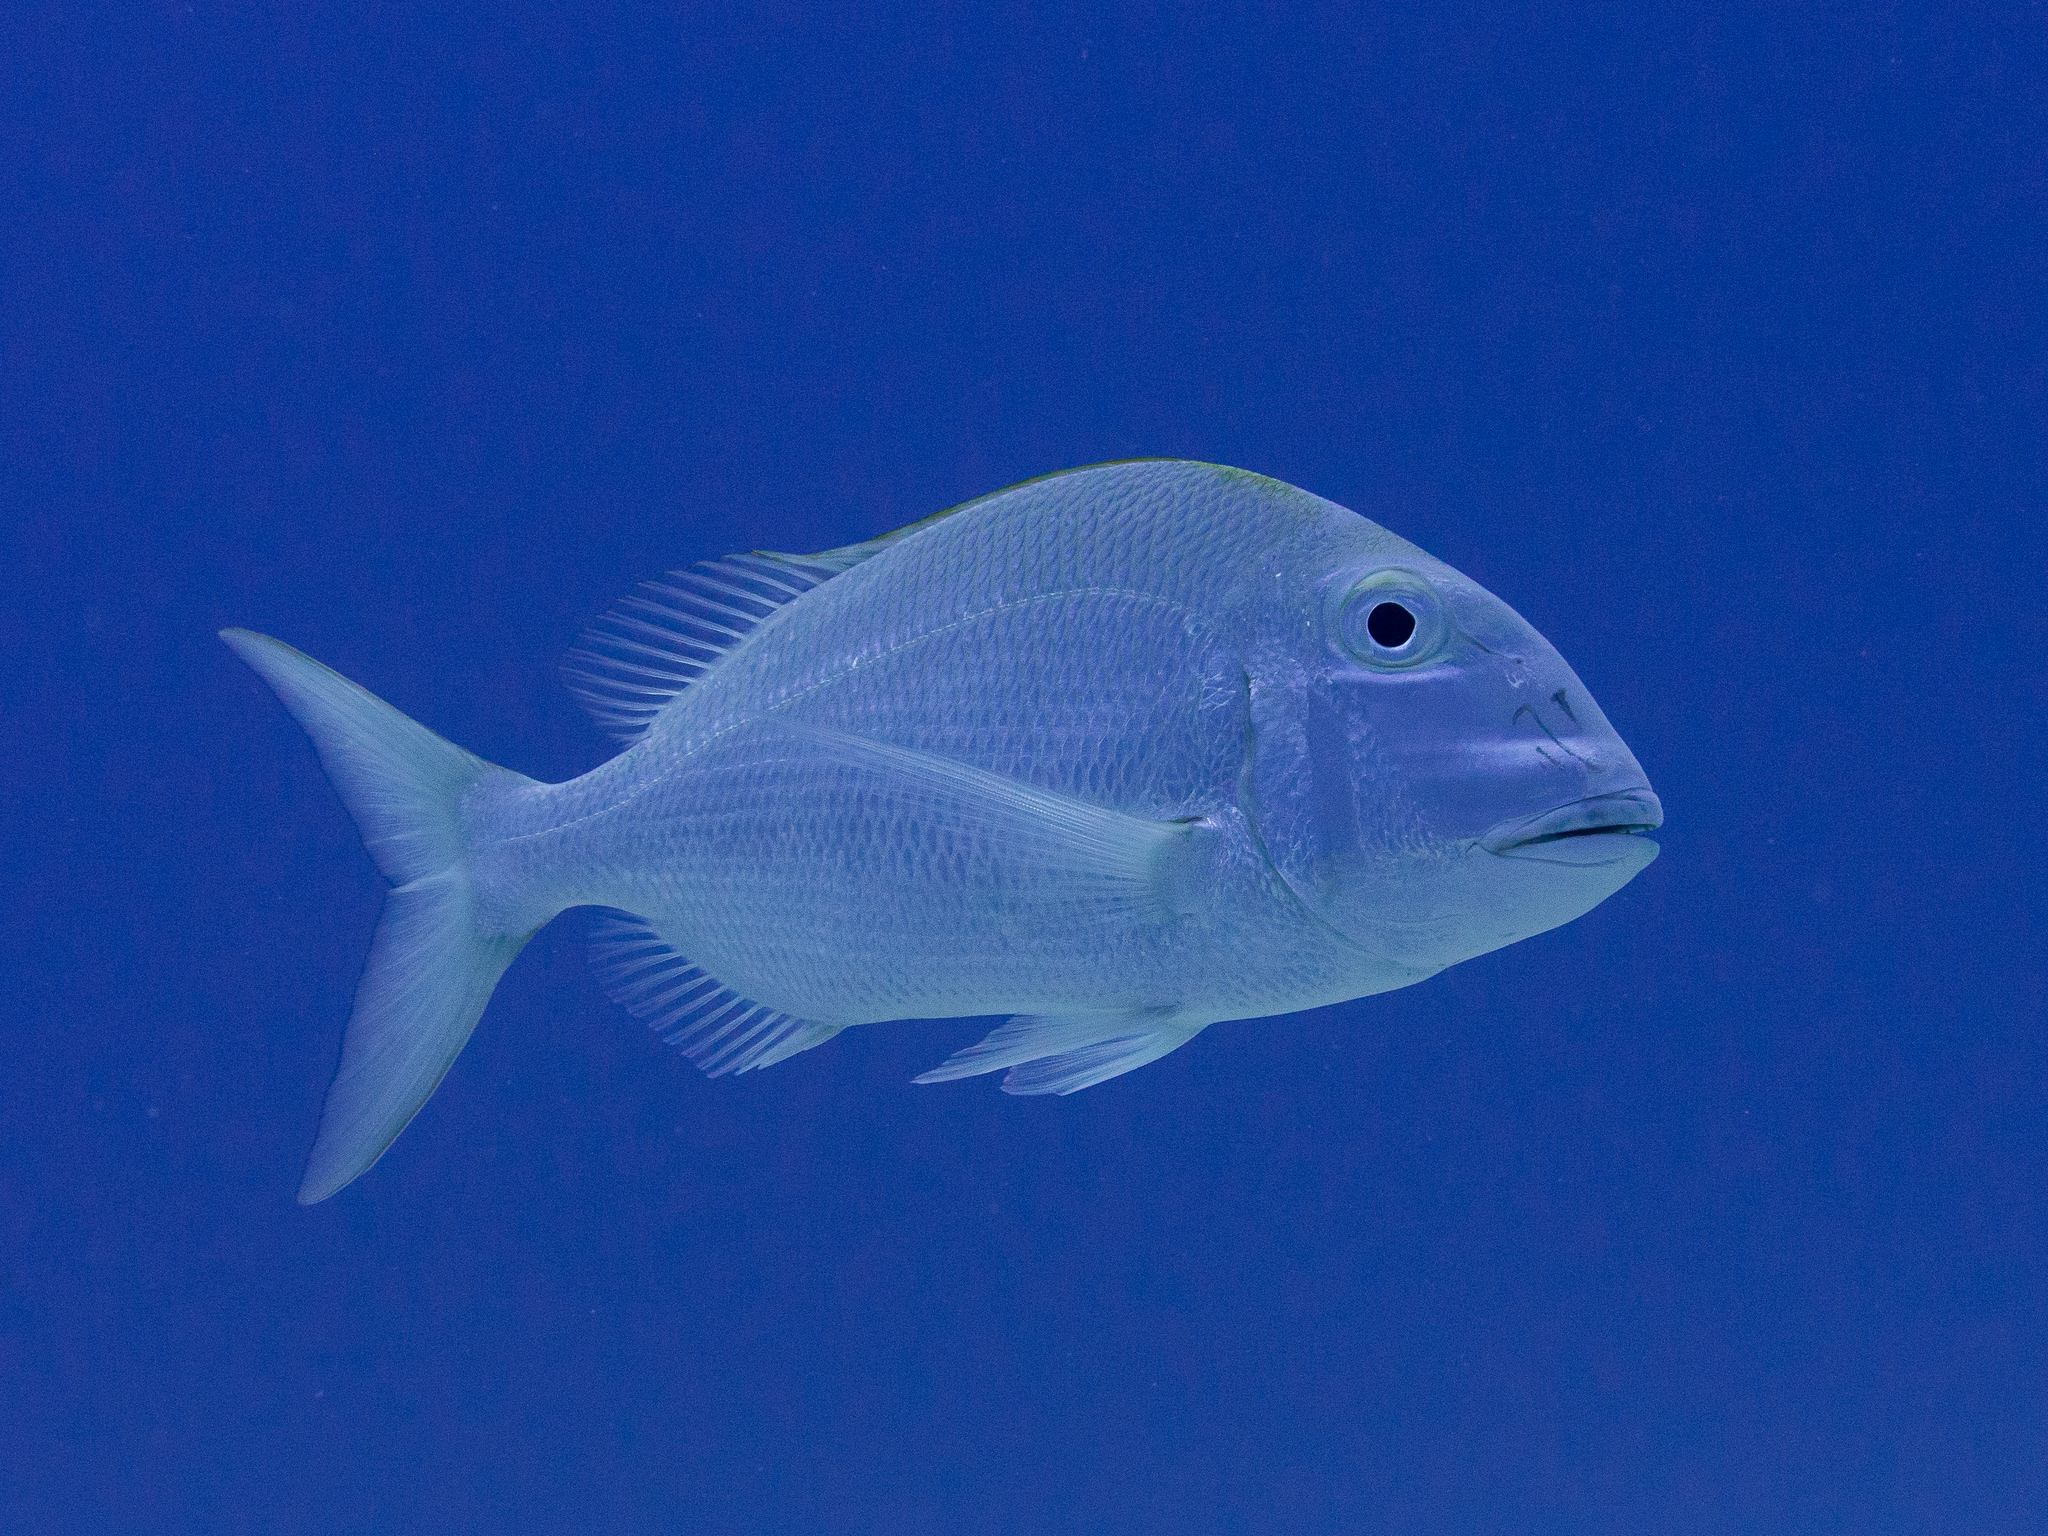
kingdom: Animalia
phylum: Chordata
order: Perciformes
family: Sparidae
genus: Calamus
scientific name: Calamus bajonado
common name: Jolthead porgy
